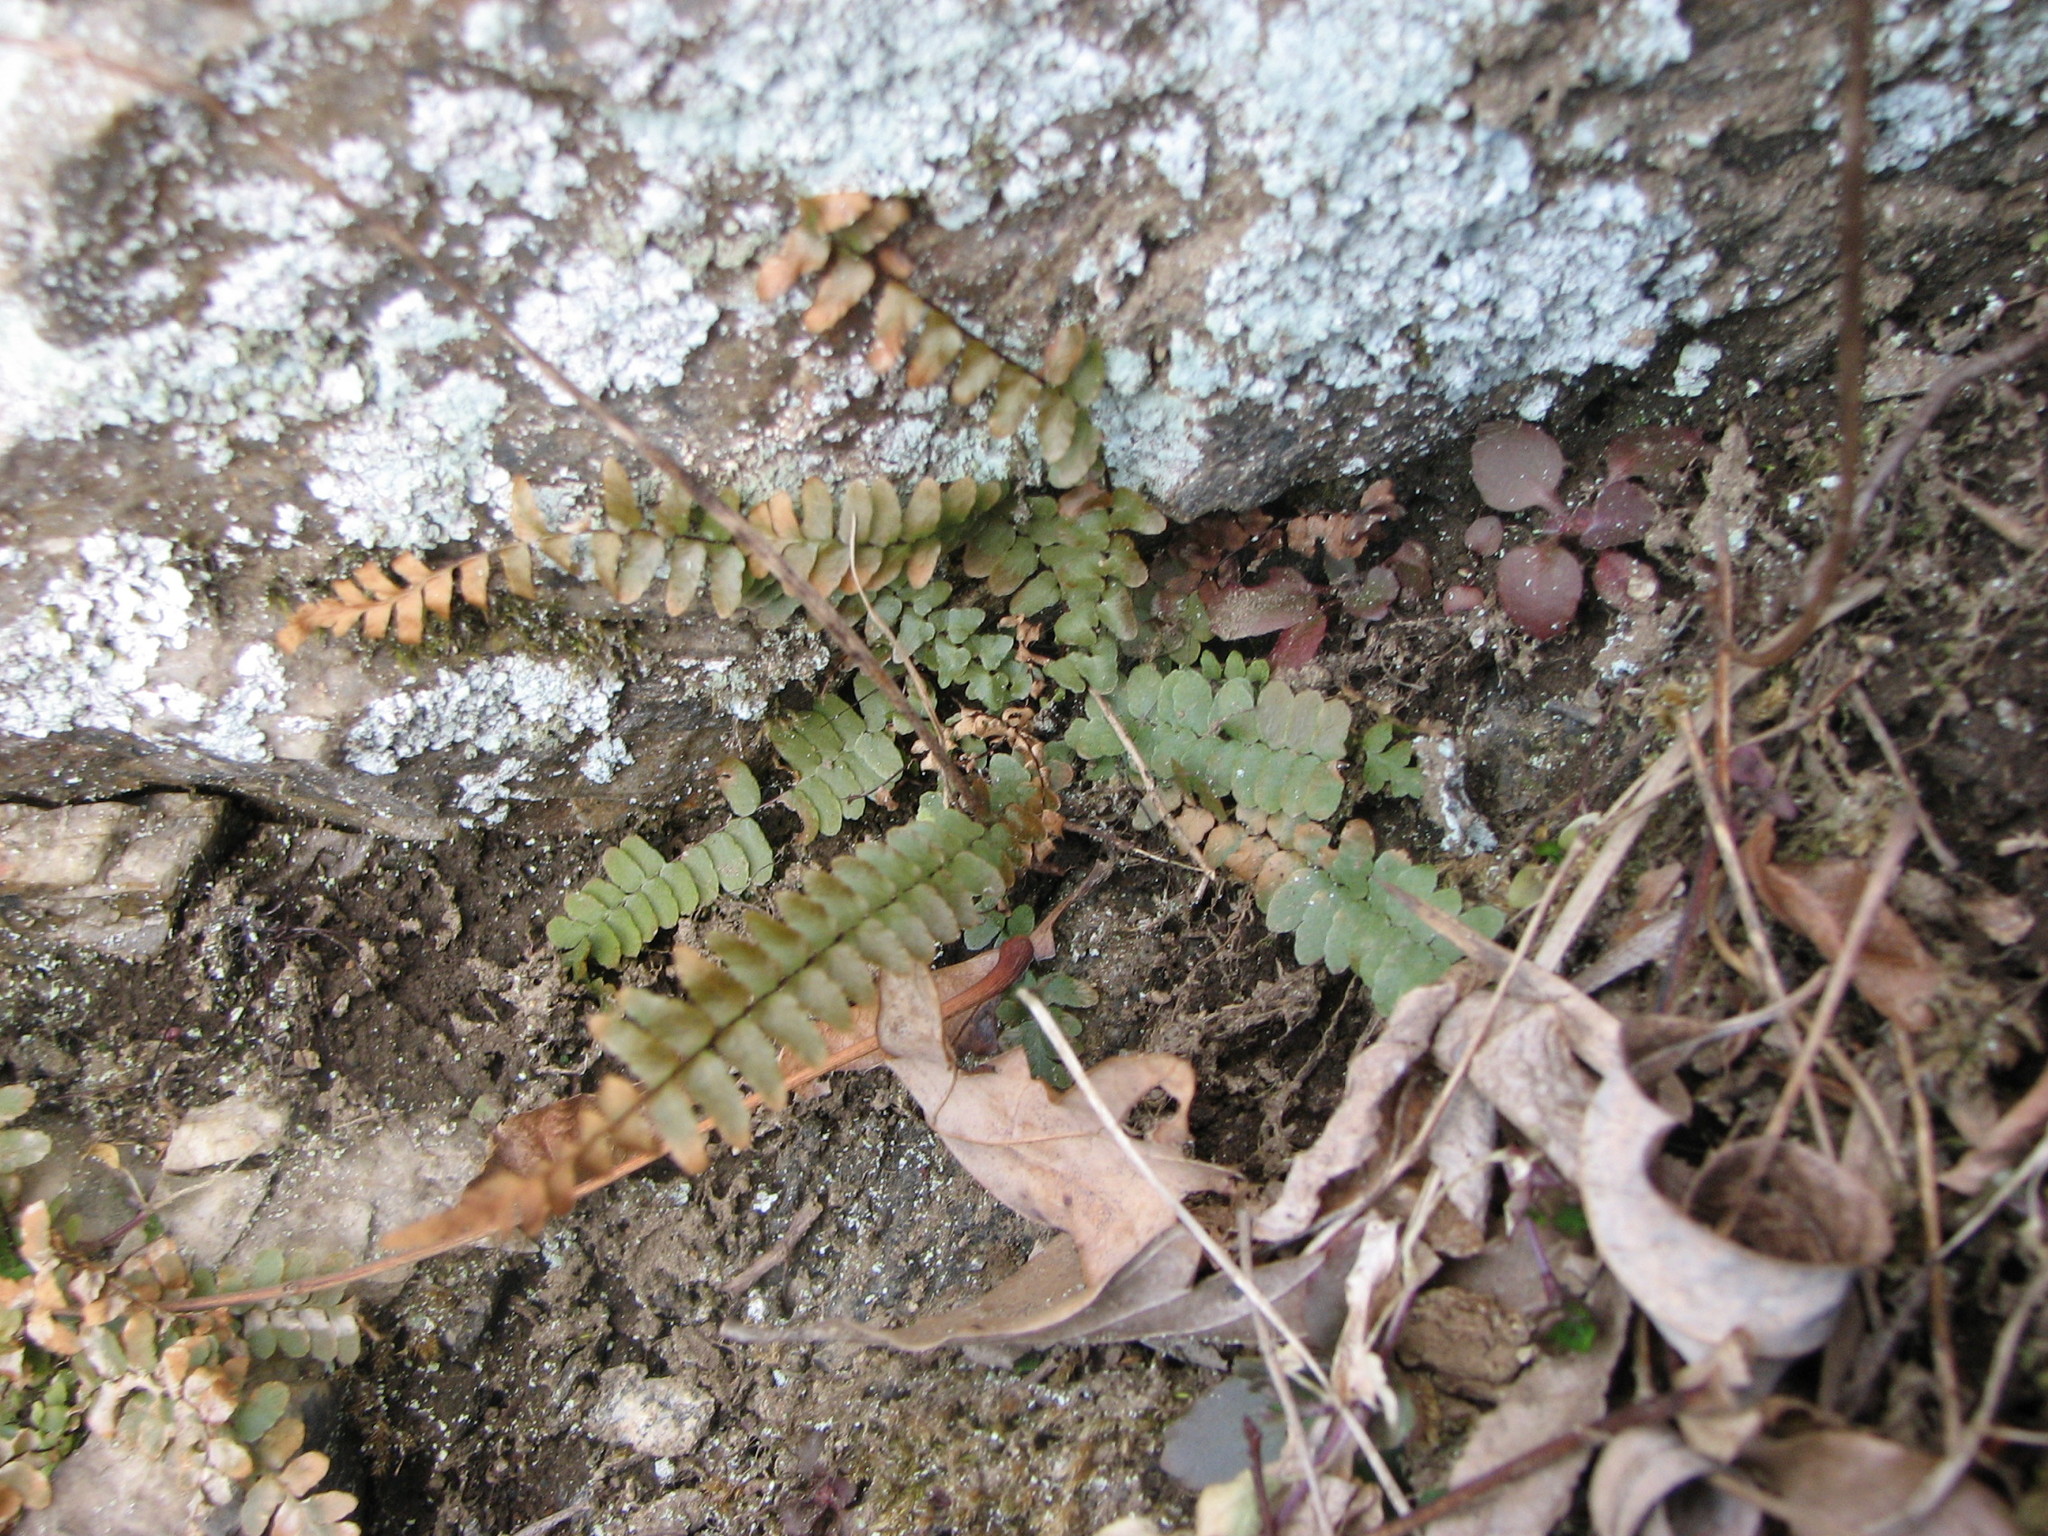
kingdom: Plantae
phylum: Tracheophyta
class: Polypodiopsida
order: Polypodiales
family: Aspleniaceae
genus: Asplenium
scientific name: Asplenium platyneuron
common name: Ebony spleenwort
